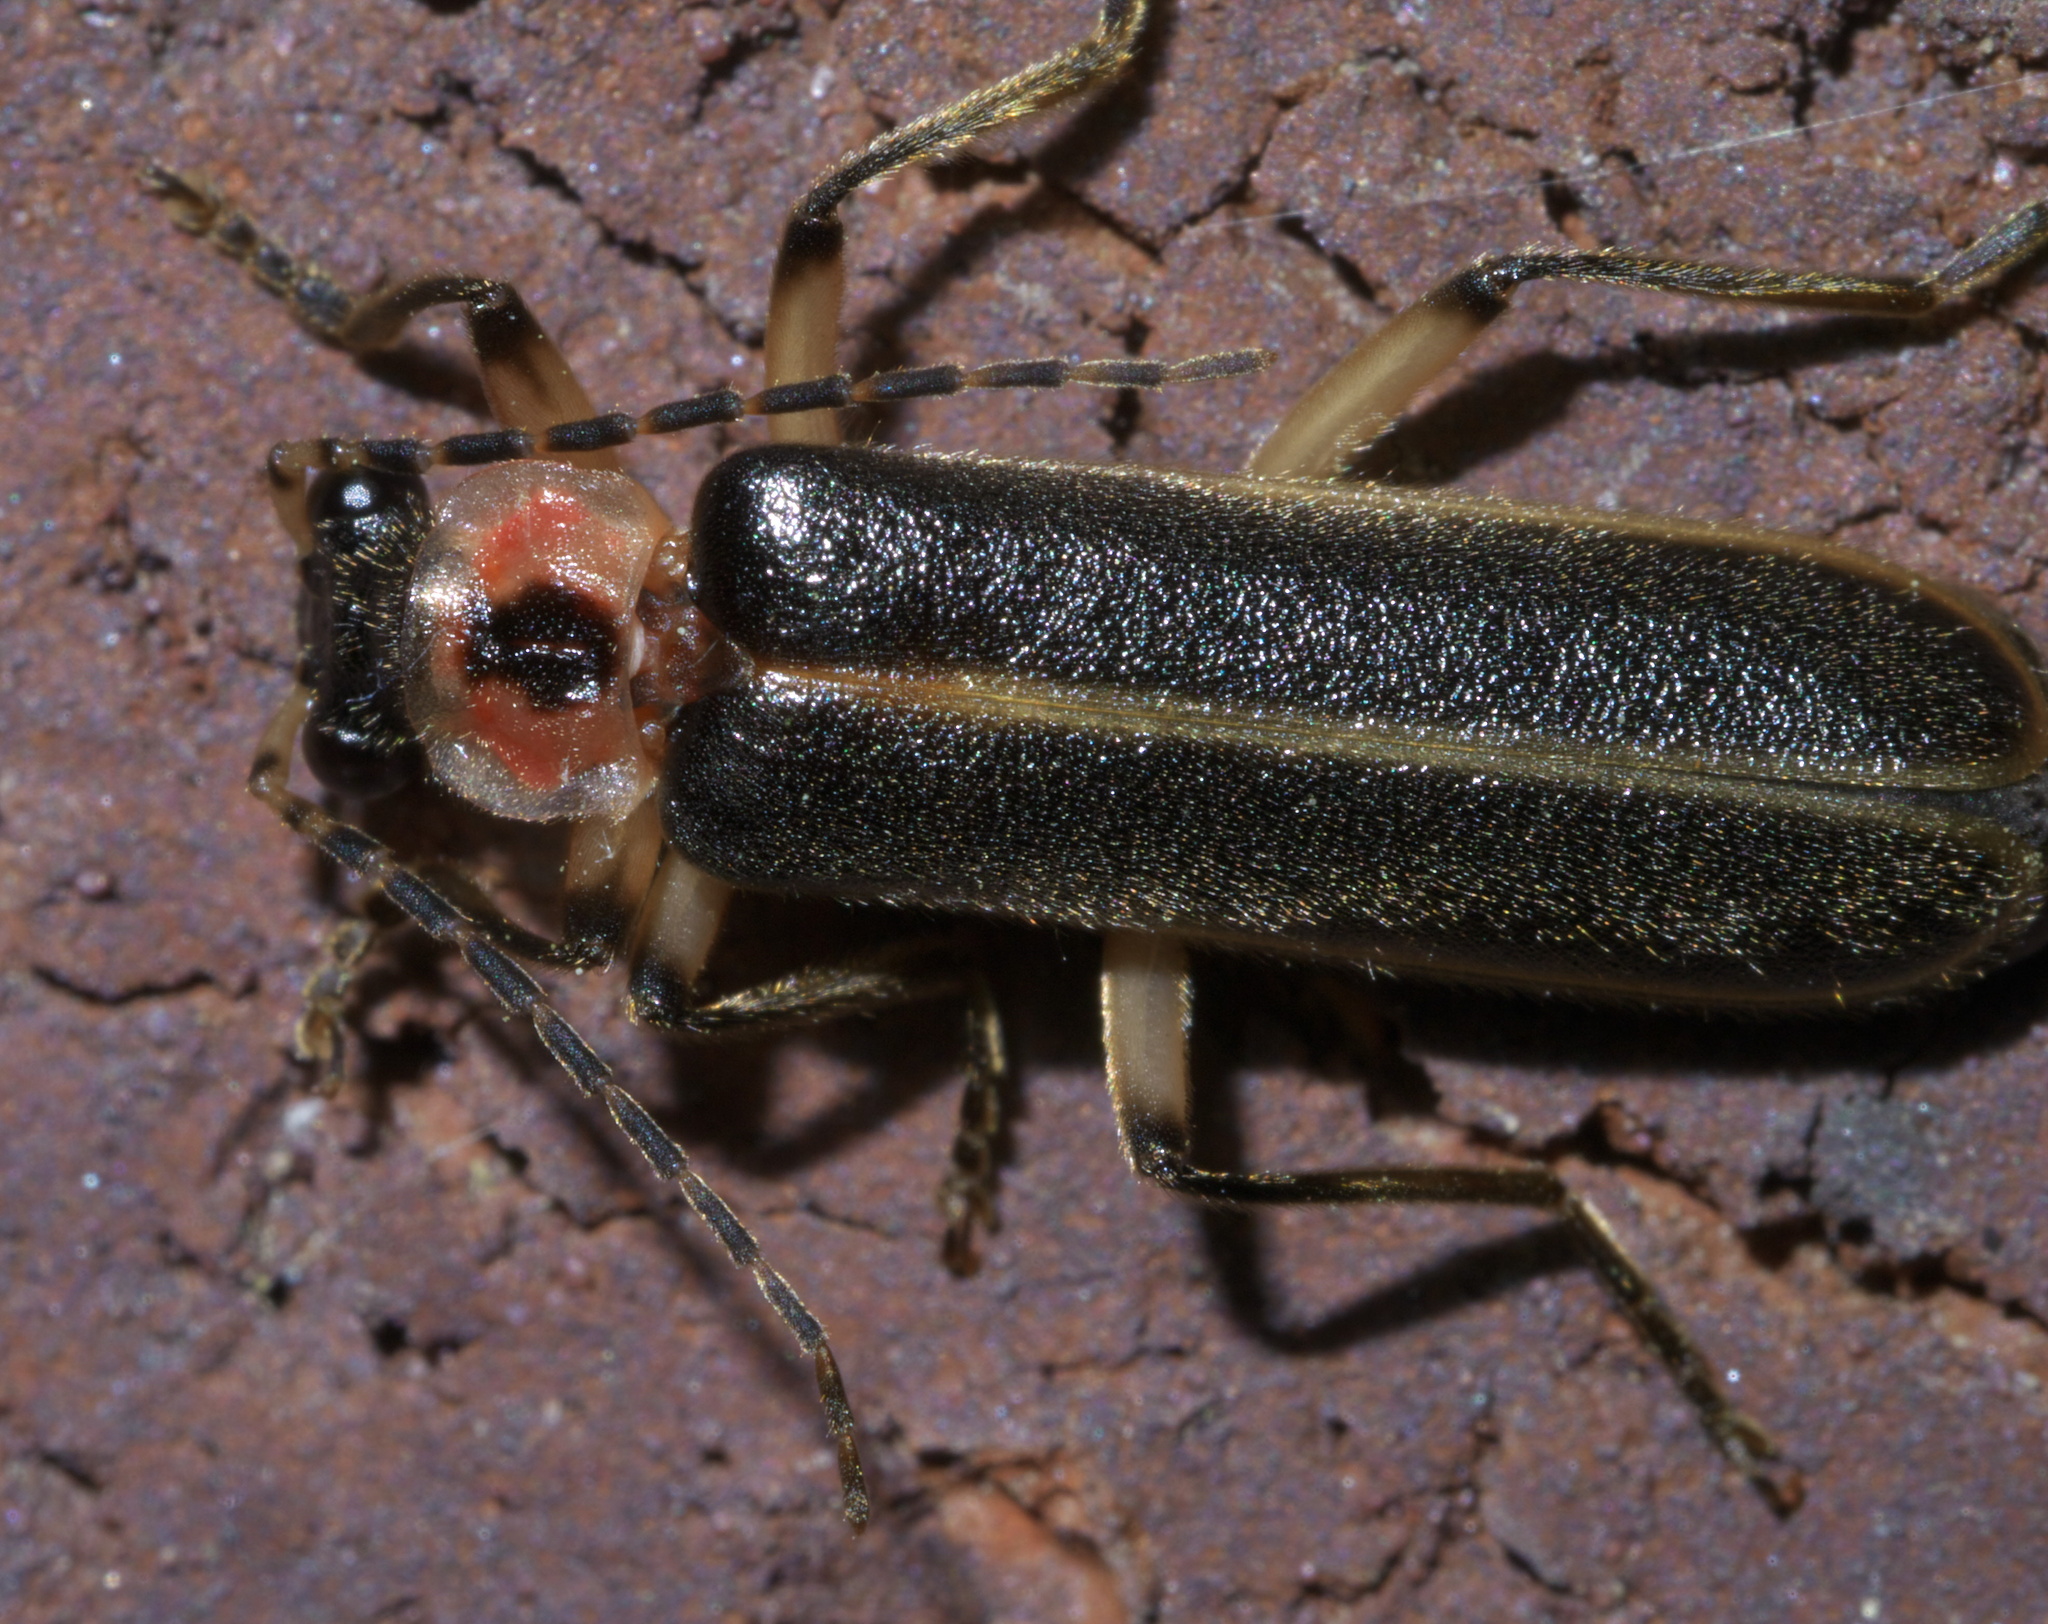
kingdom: Animalia
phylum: Arthropoda
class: Insecta
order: Coleoptera
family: Cantharidae
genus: Podabrus
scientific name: Podabrus basilaris
